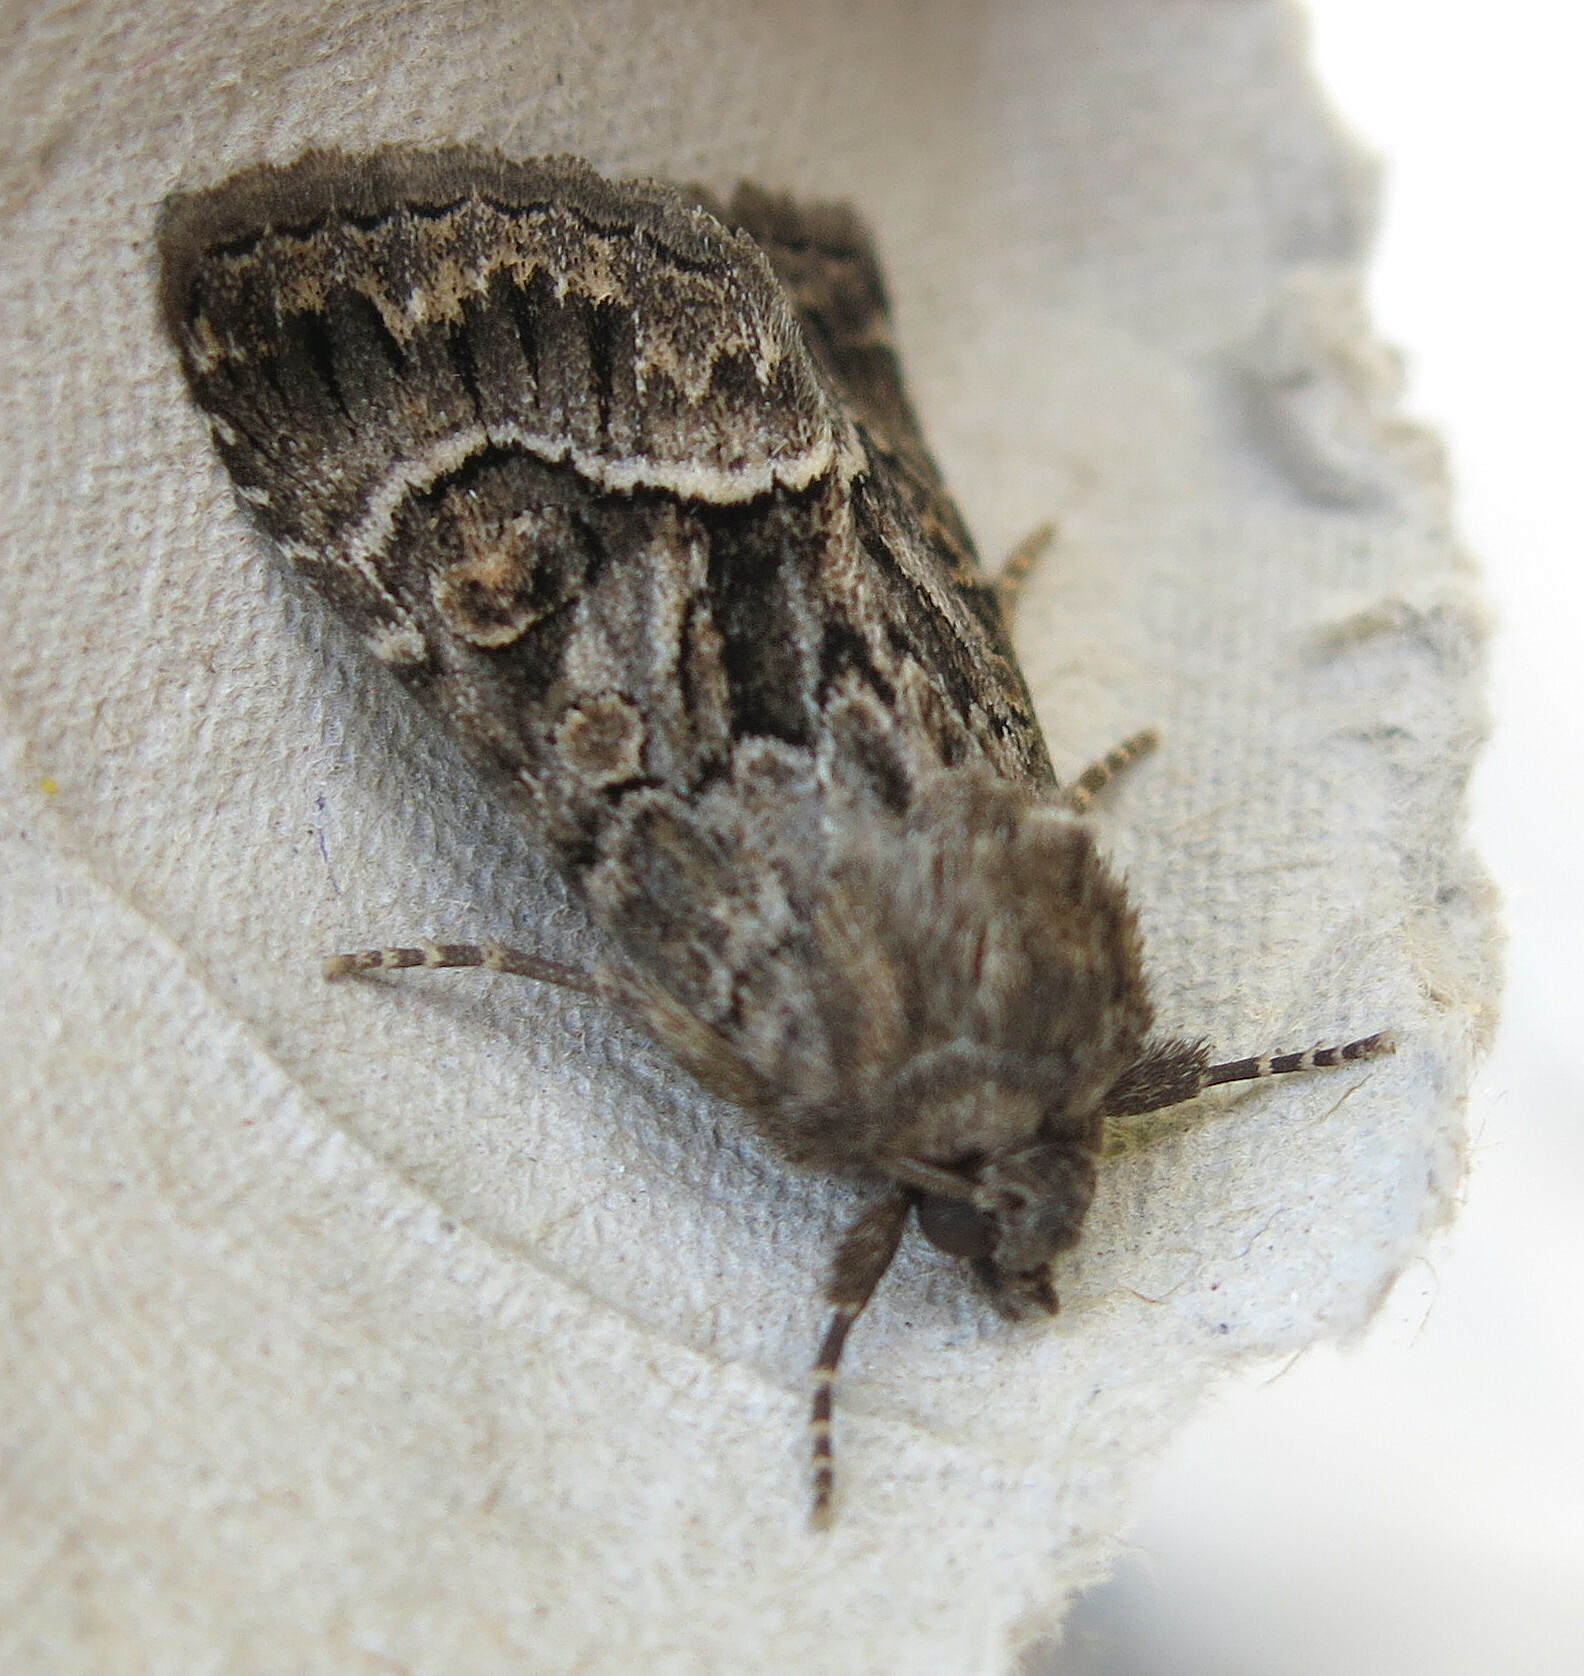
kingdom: Animalia
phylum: Arthropoda
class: Insecta
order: Lepidoptera
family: Noctuidae
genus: Thalpophila
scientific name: Thalpophila matura
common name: Straw underwing
